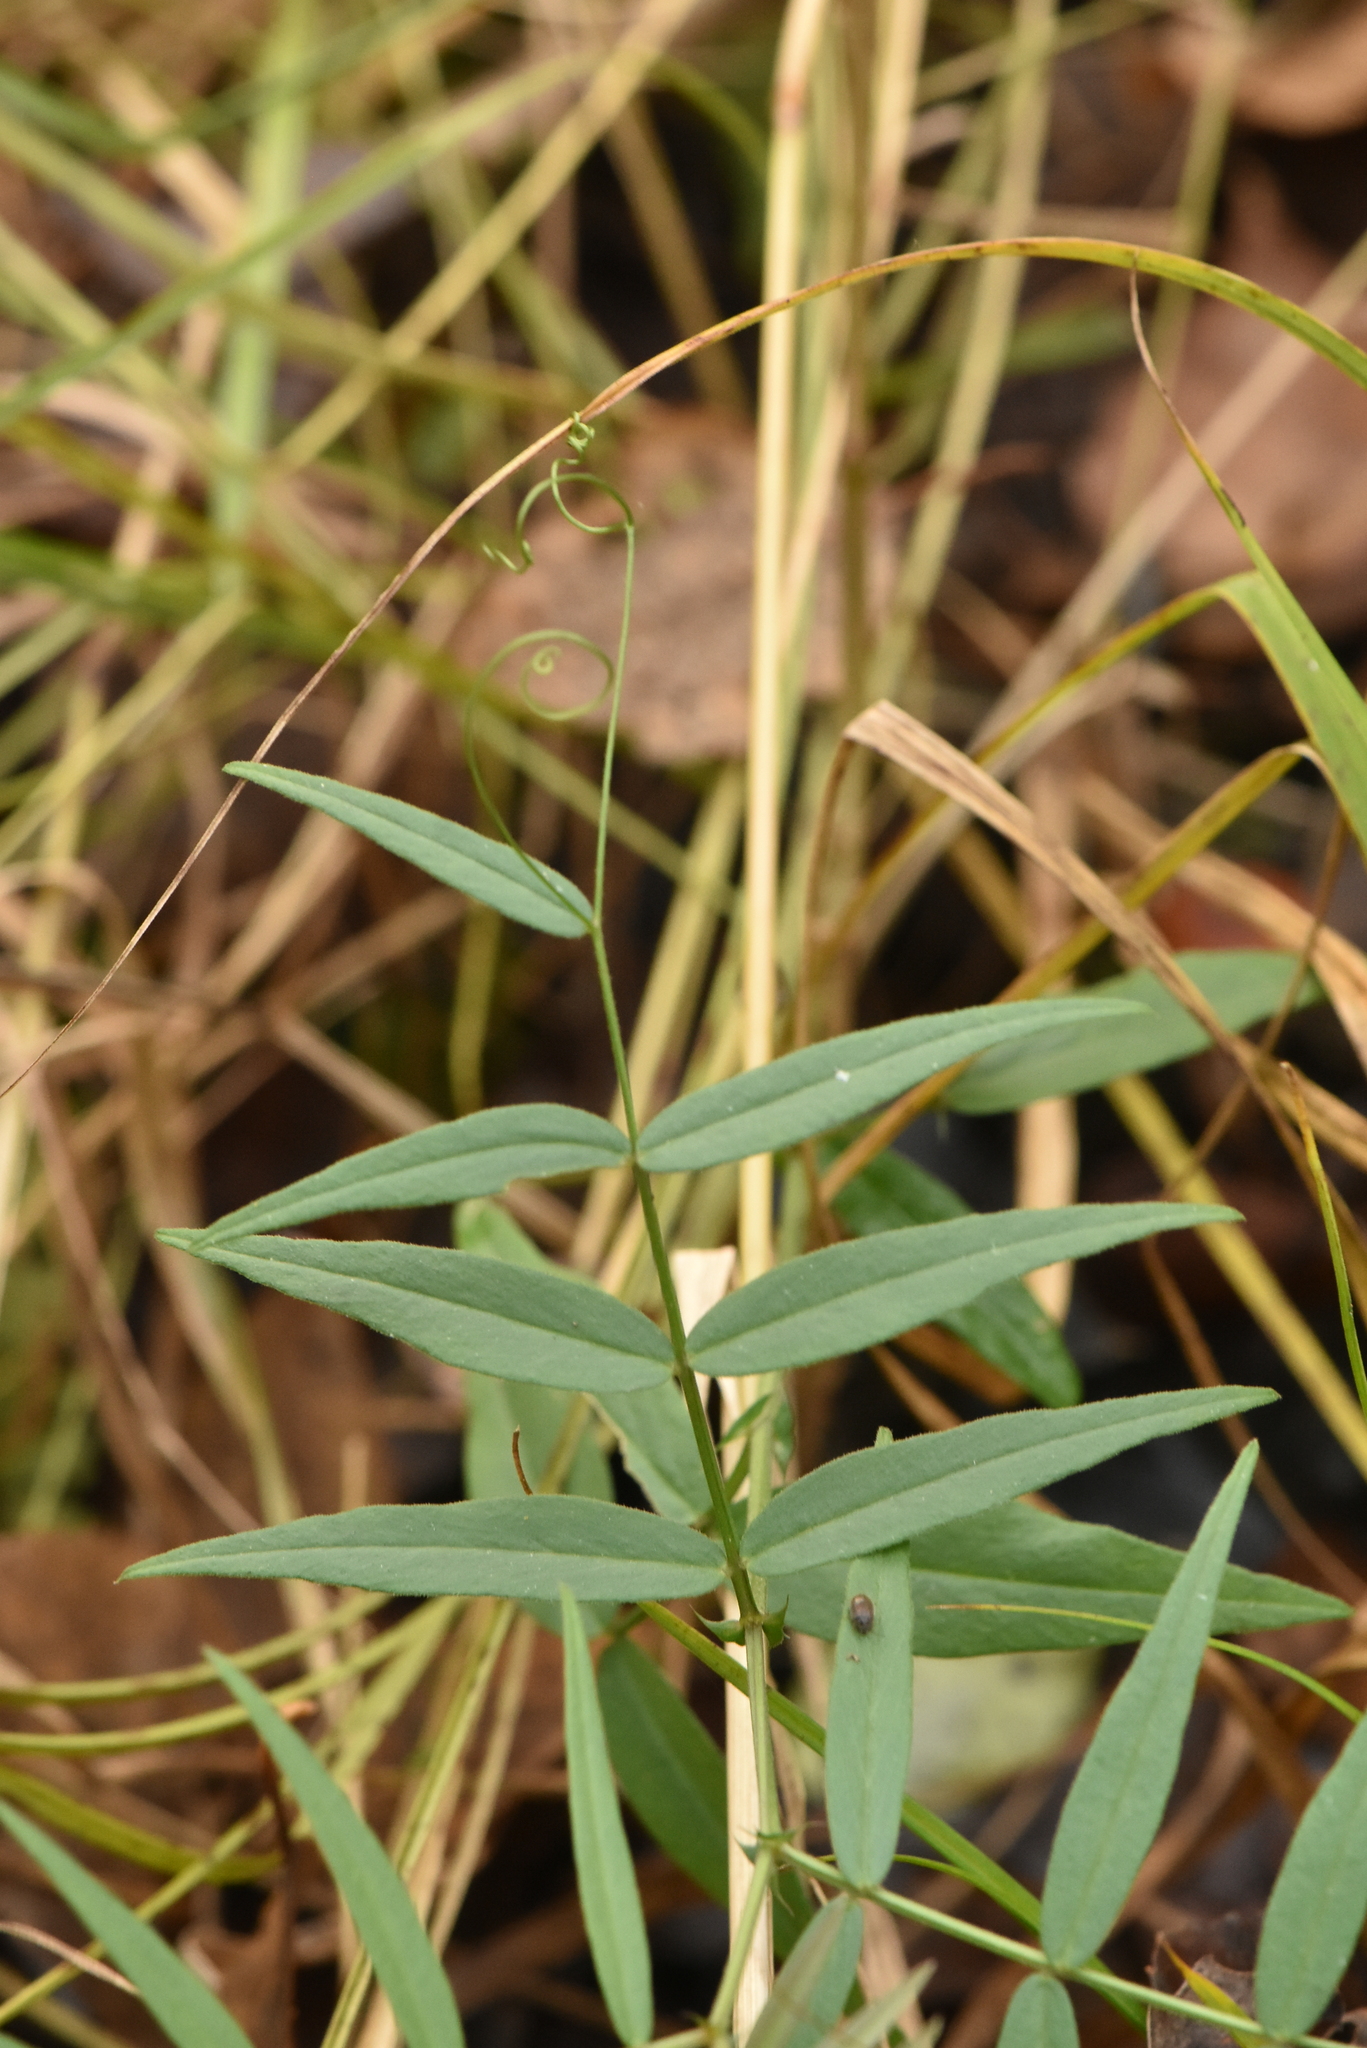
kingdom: Plantae
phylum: Tracheophyta
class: Magnoliopsida
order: Fabales
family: Fabaceae
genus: Vicia
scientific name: Vicia sepium
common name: Bush vetch
